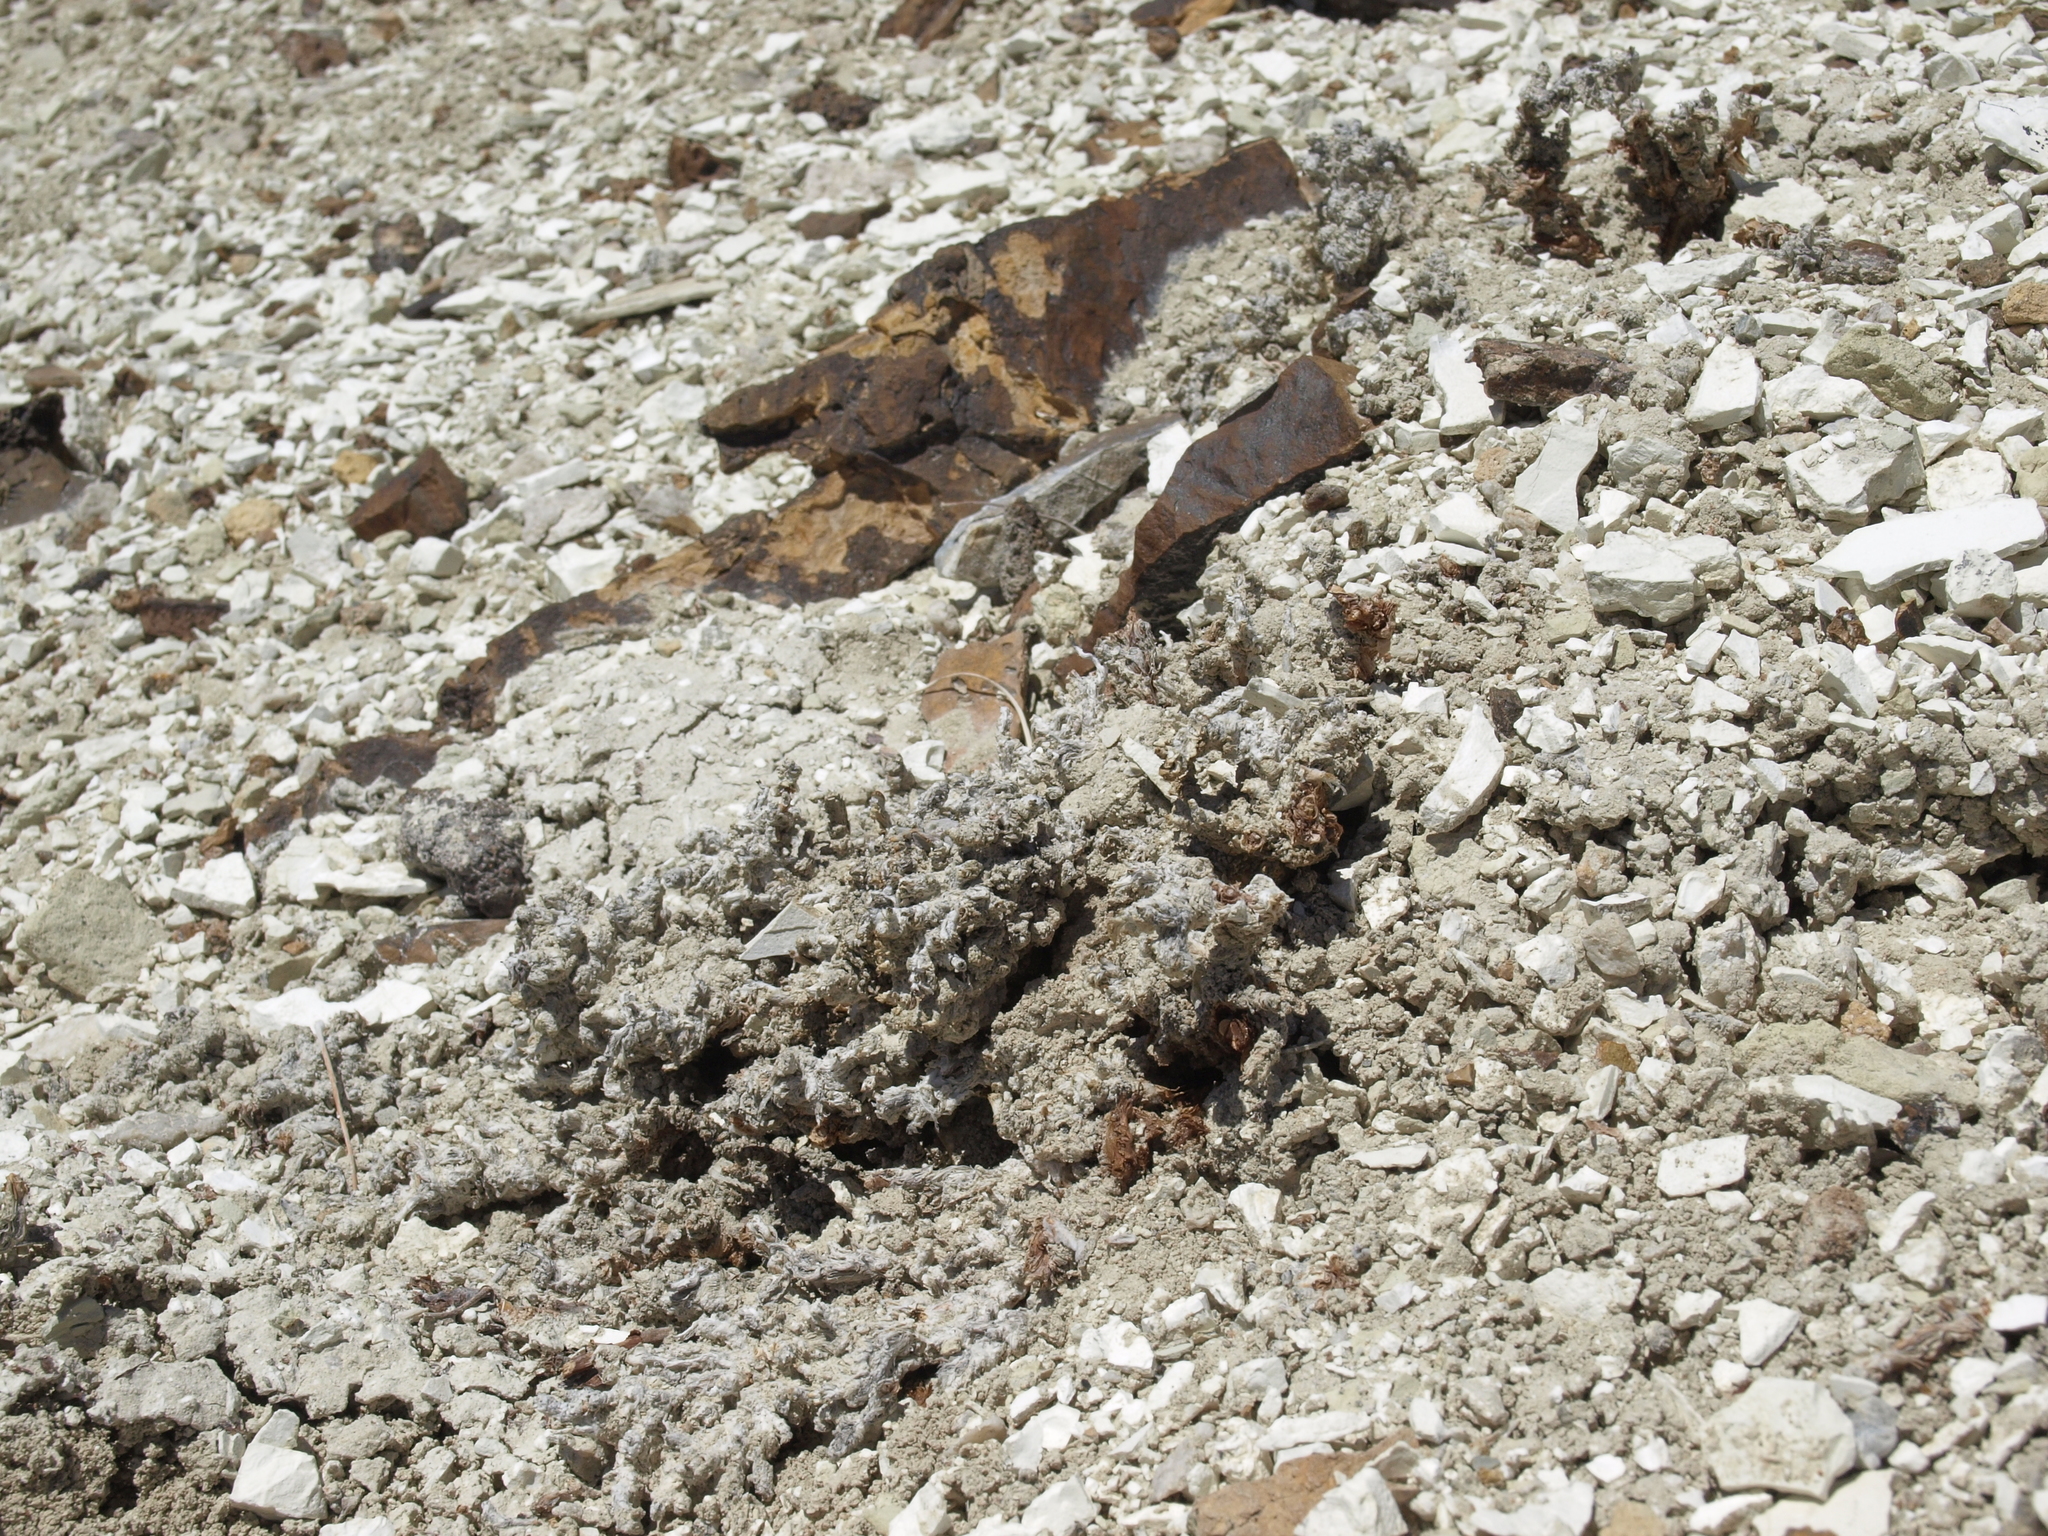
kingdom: Plantae
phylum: Tracheophyta
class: Magnoliopsida
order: Caryophyllales
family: Polygonaceae
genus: Eriogonum
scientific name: Eriogonum tiehmii
